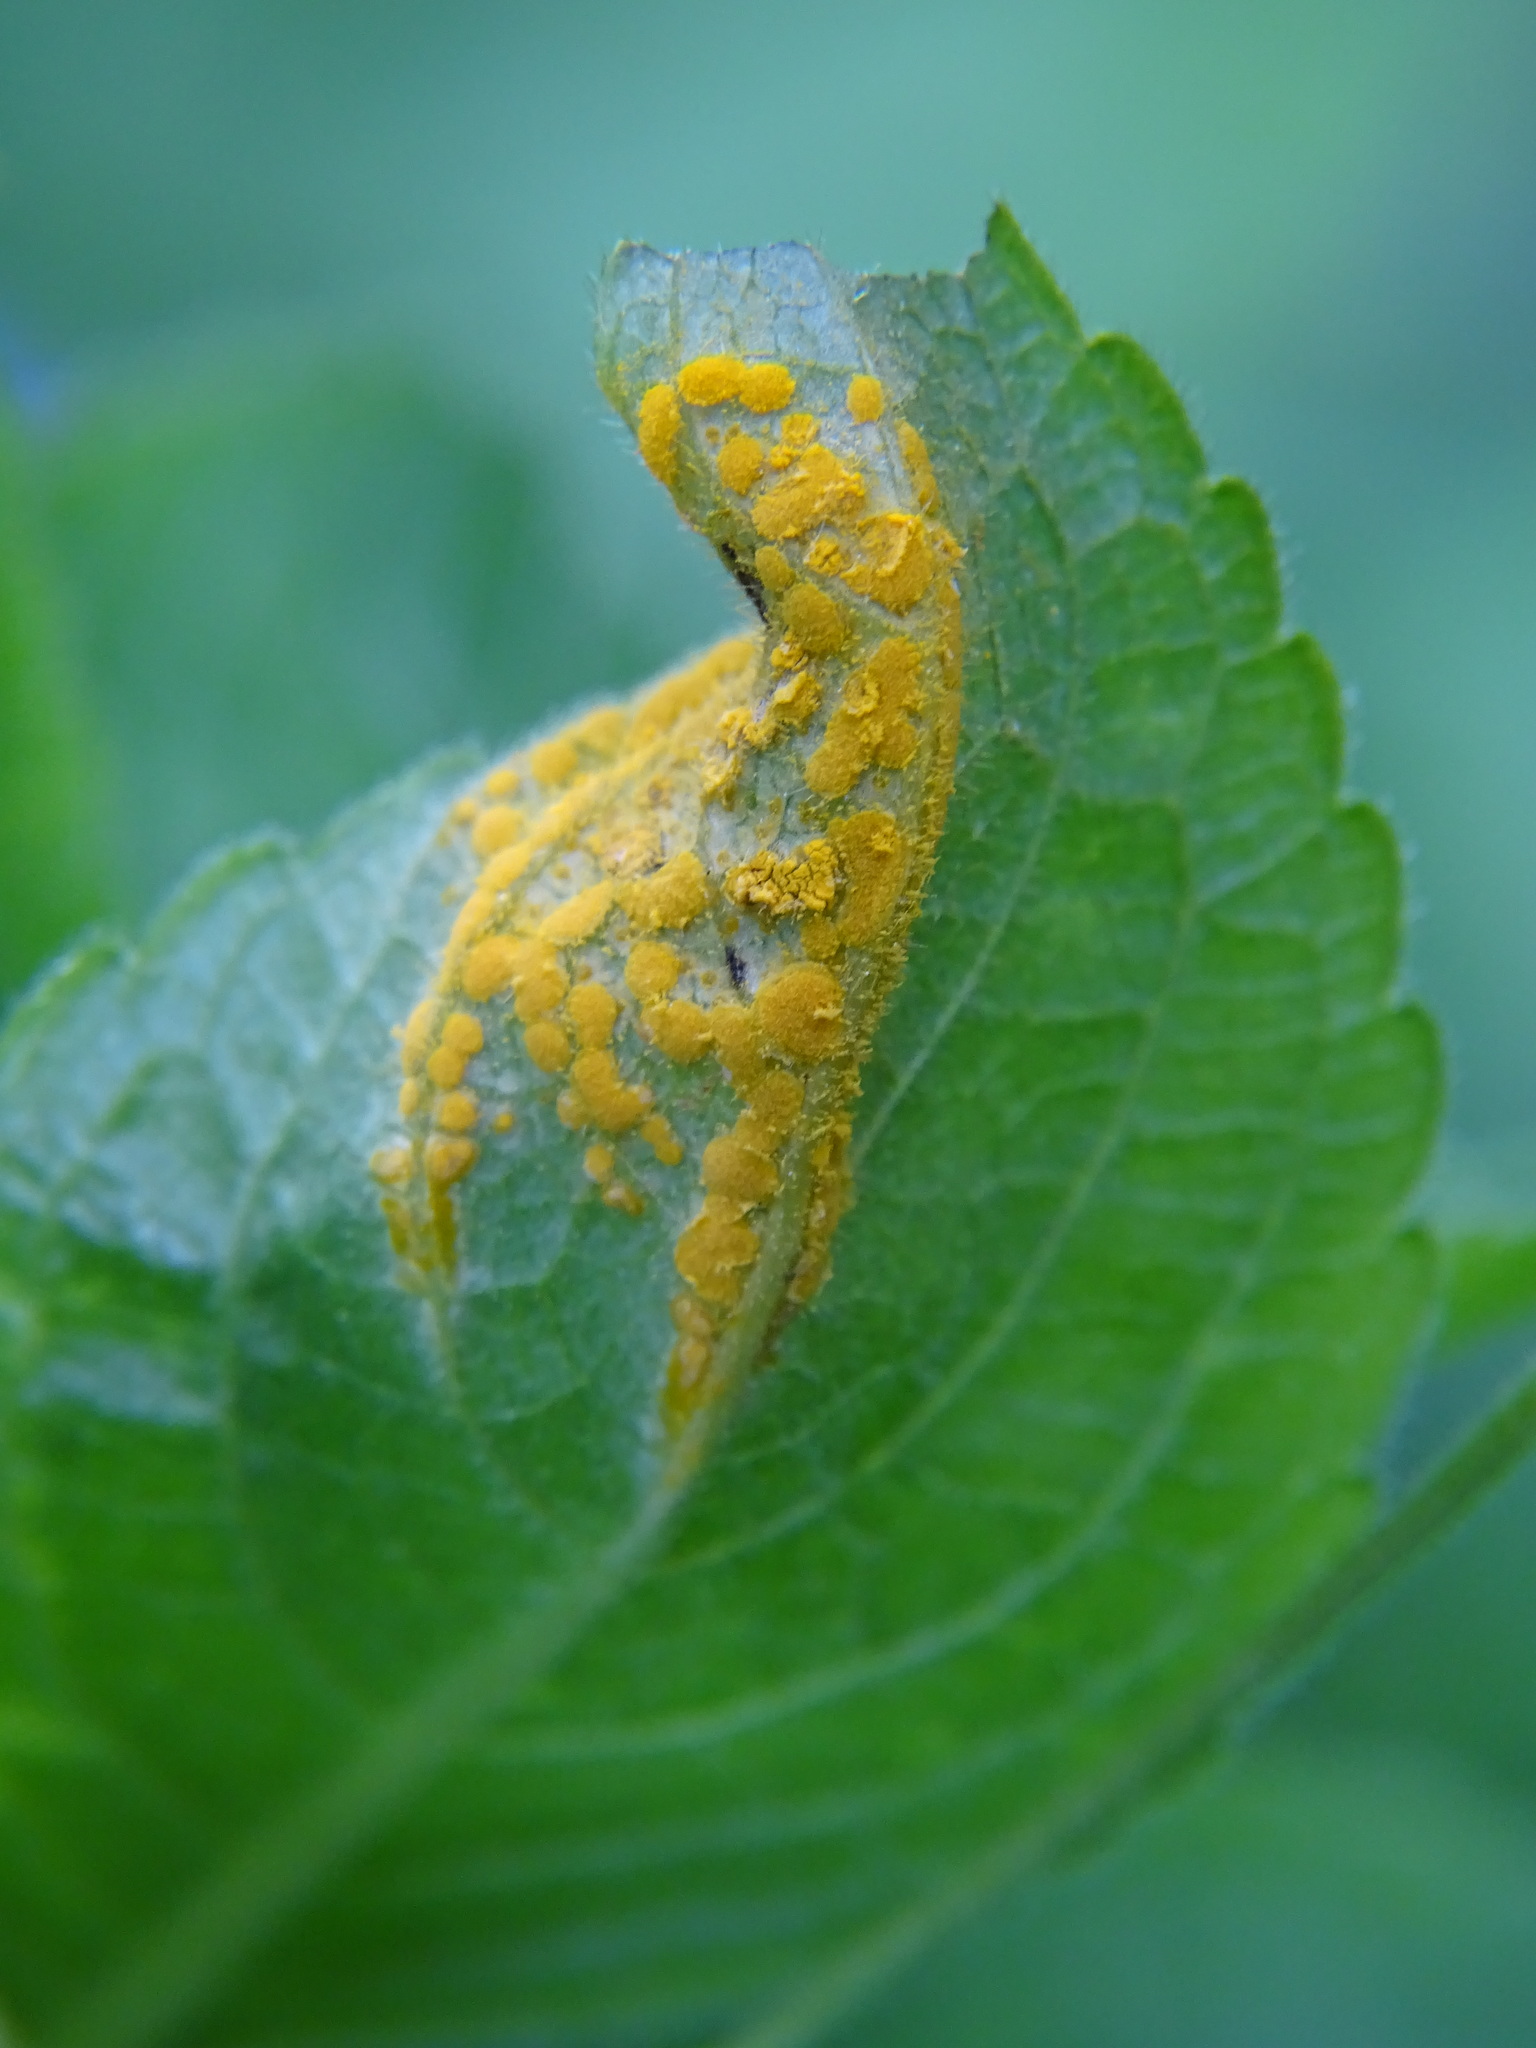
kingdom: Fungi
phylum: Basidiomycota
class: Pucciniomycetes
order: Pucciniales
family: Melampsoraceae
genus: Melampsora
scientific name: Melampsora rostrupii
